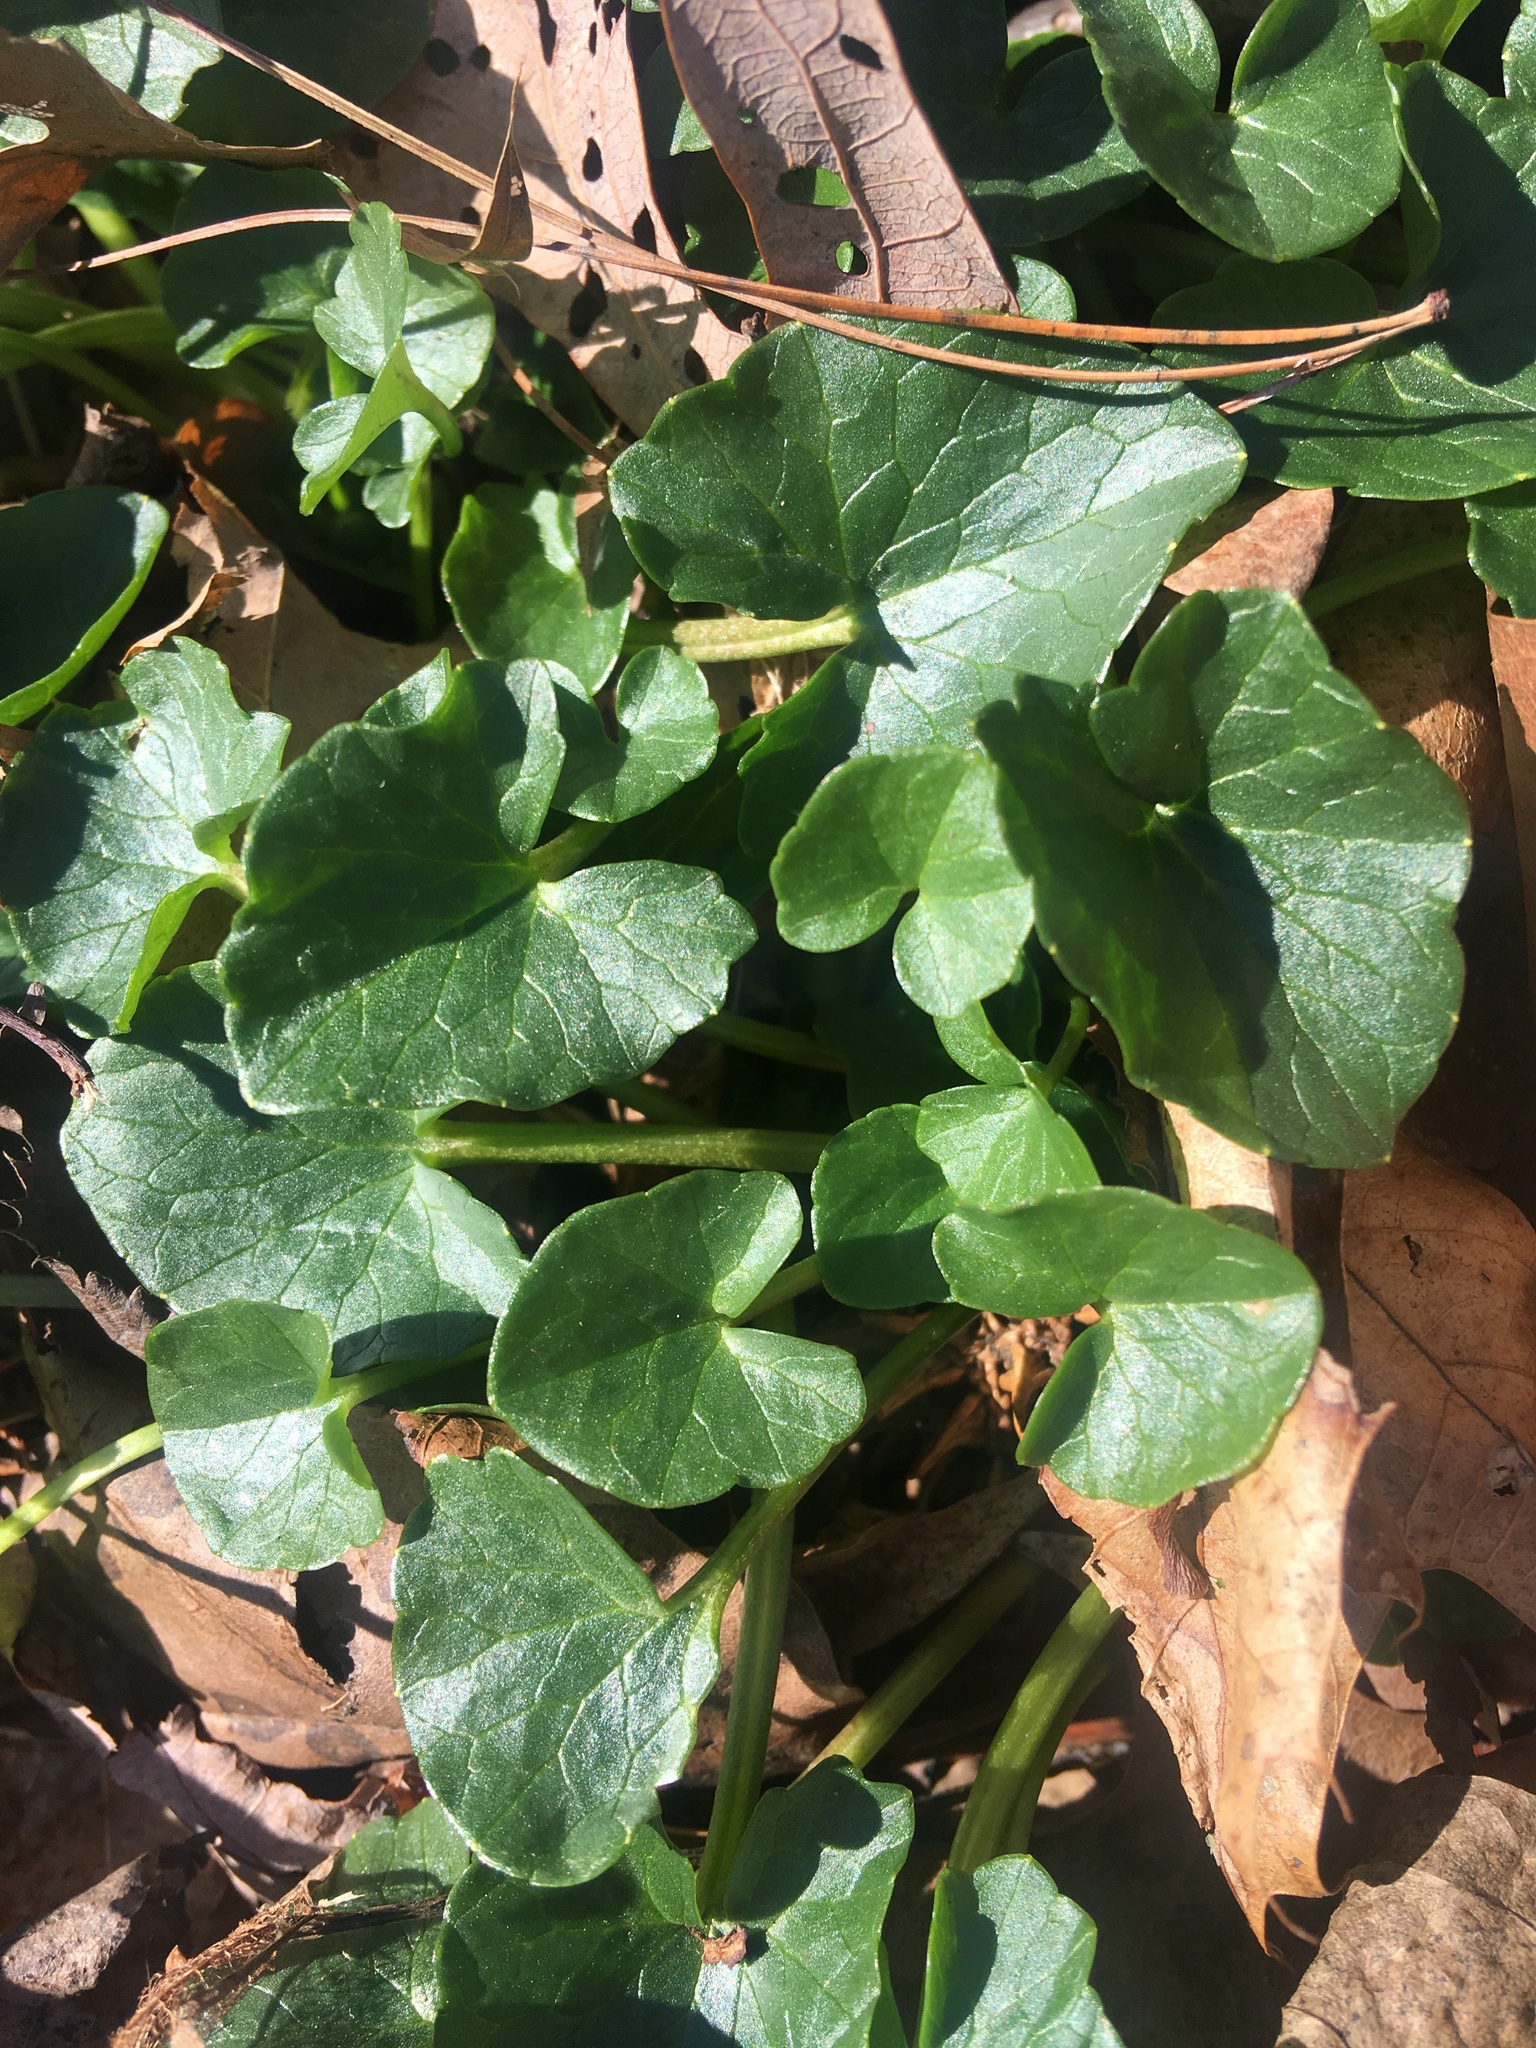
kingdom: Plantae
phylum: Tracheophyta
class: Magnoliopsida
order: Ranunculales
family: Ranunculaceae
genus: Ficaria
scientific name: Ficaria verna
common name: Lesser celandine
